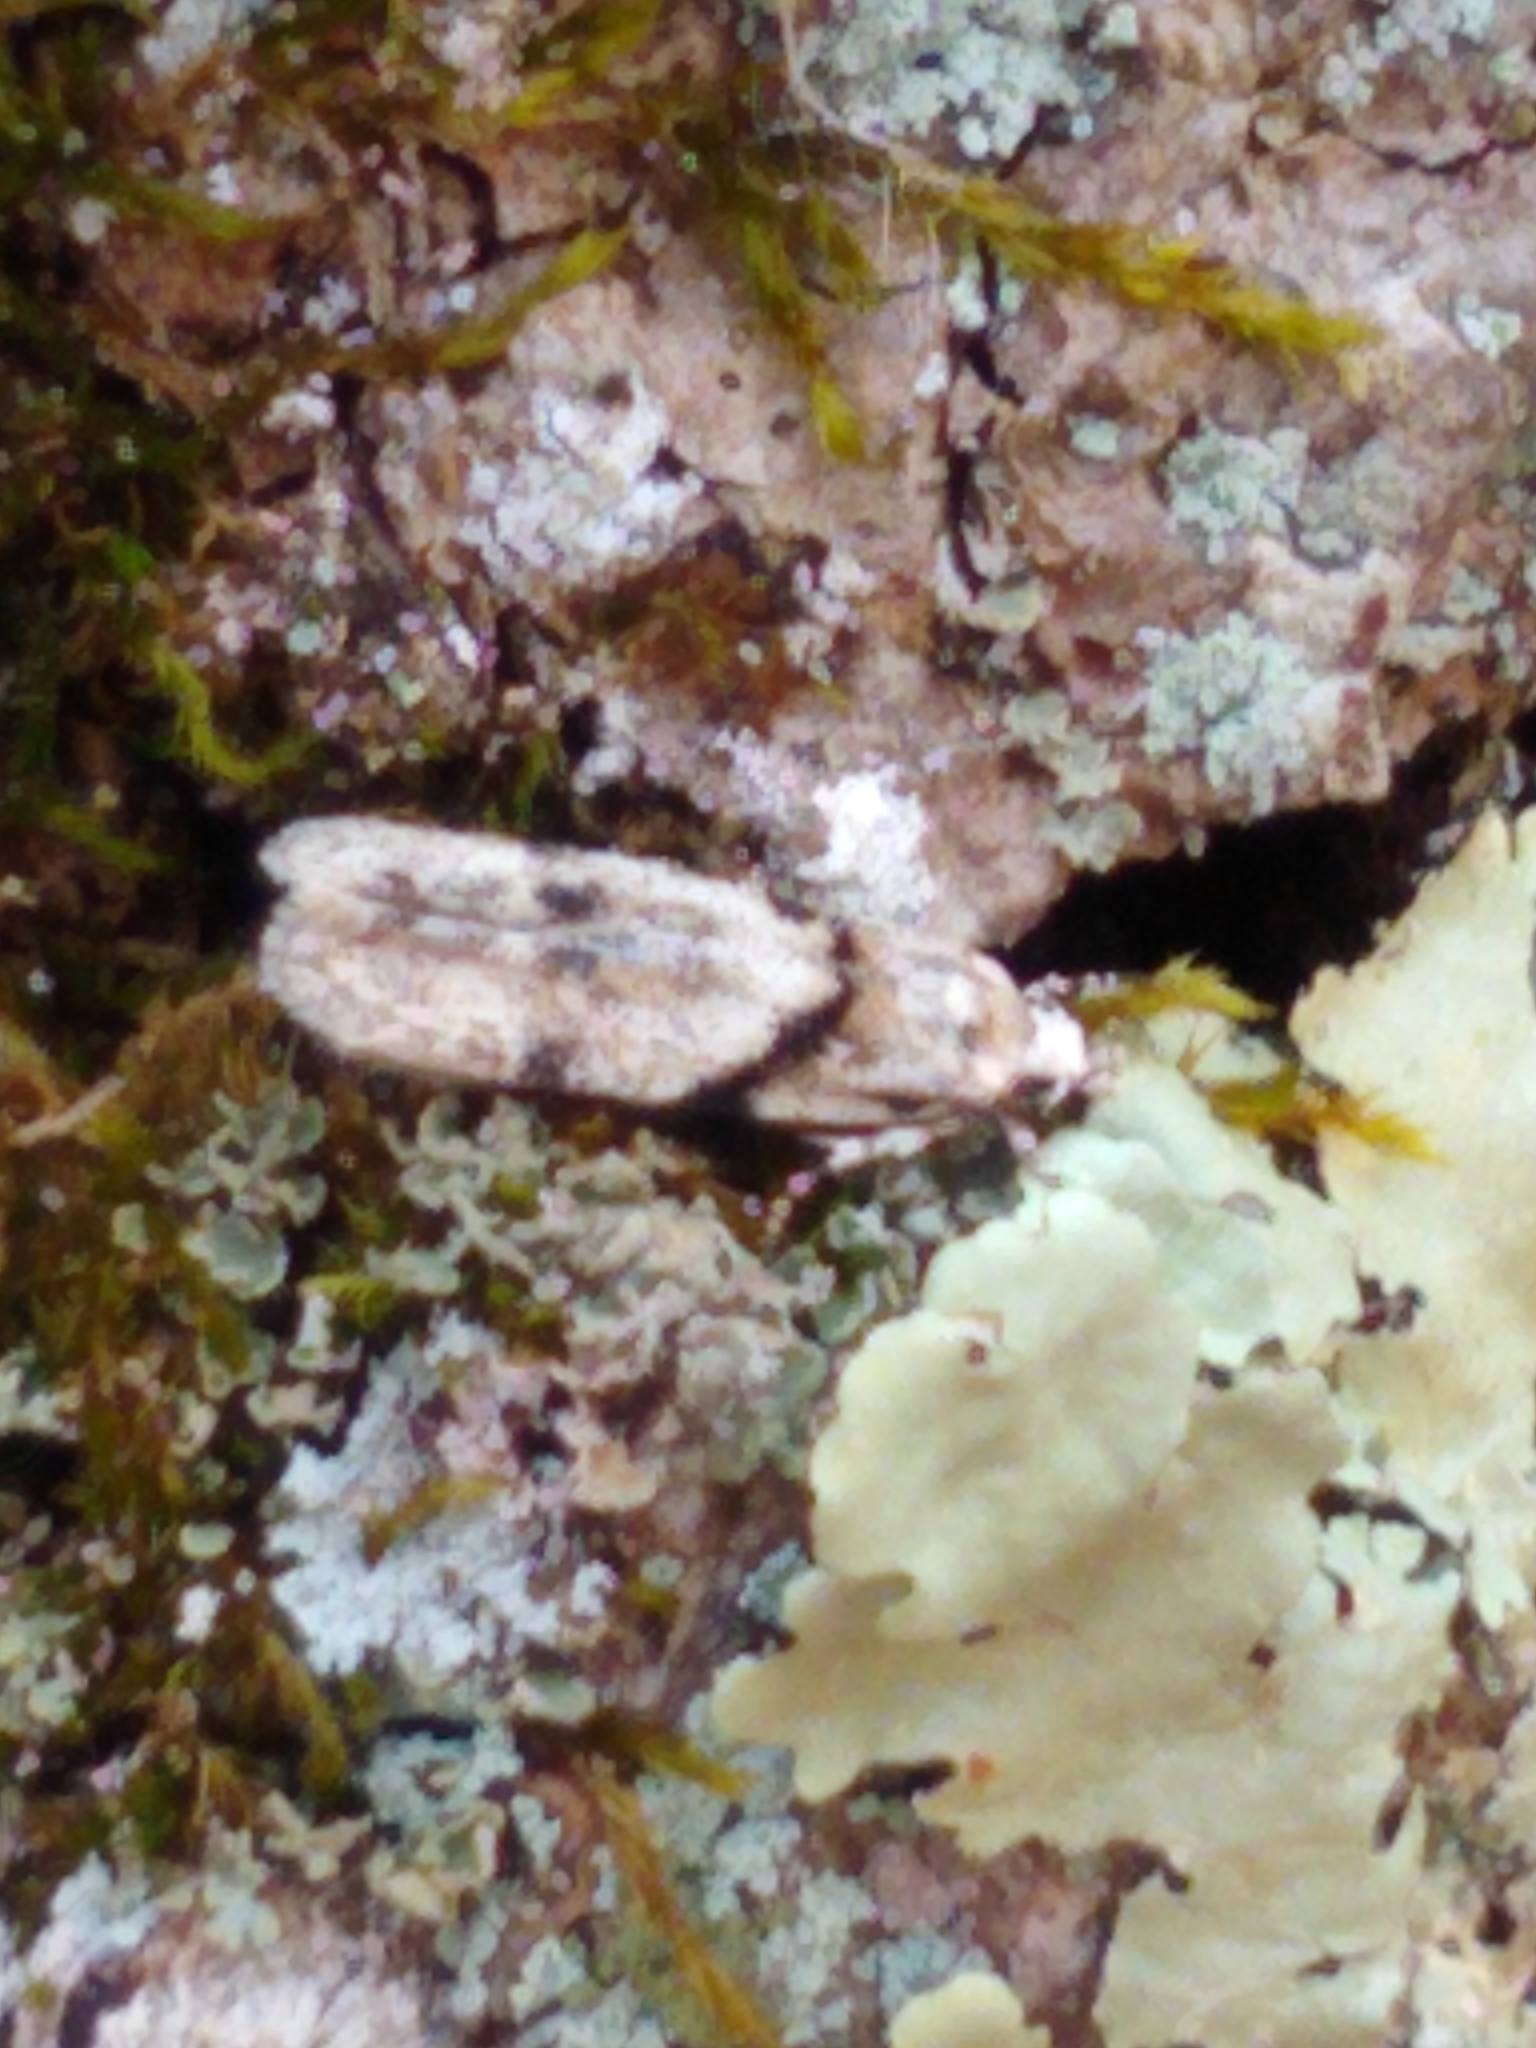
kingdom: Animalia
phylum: Arthropoda
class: Insecta
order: Lepidoptera
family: Gelechiidae
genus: Arogalea
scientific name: Arogalea cristifasciella
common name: White stripe-backed moth
